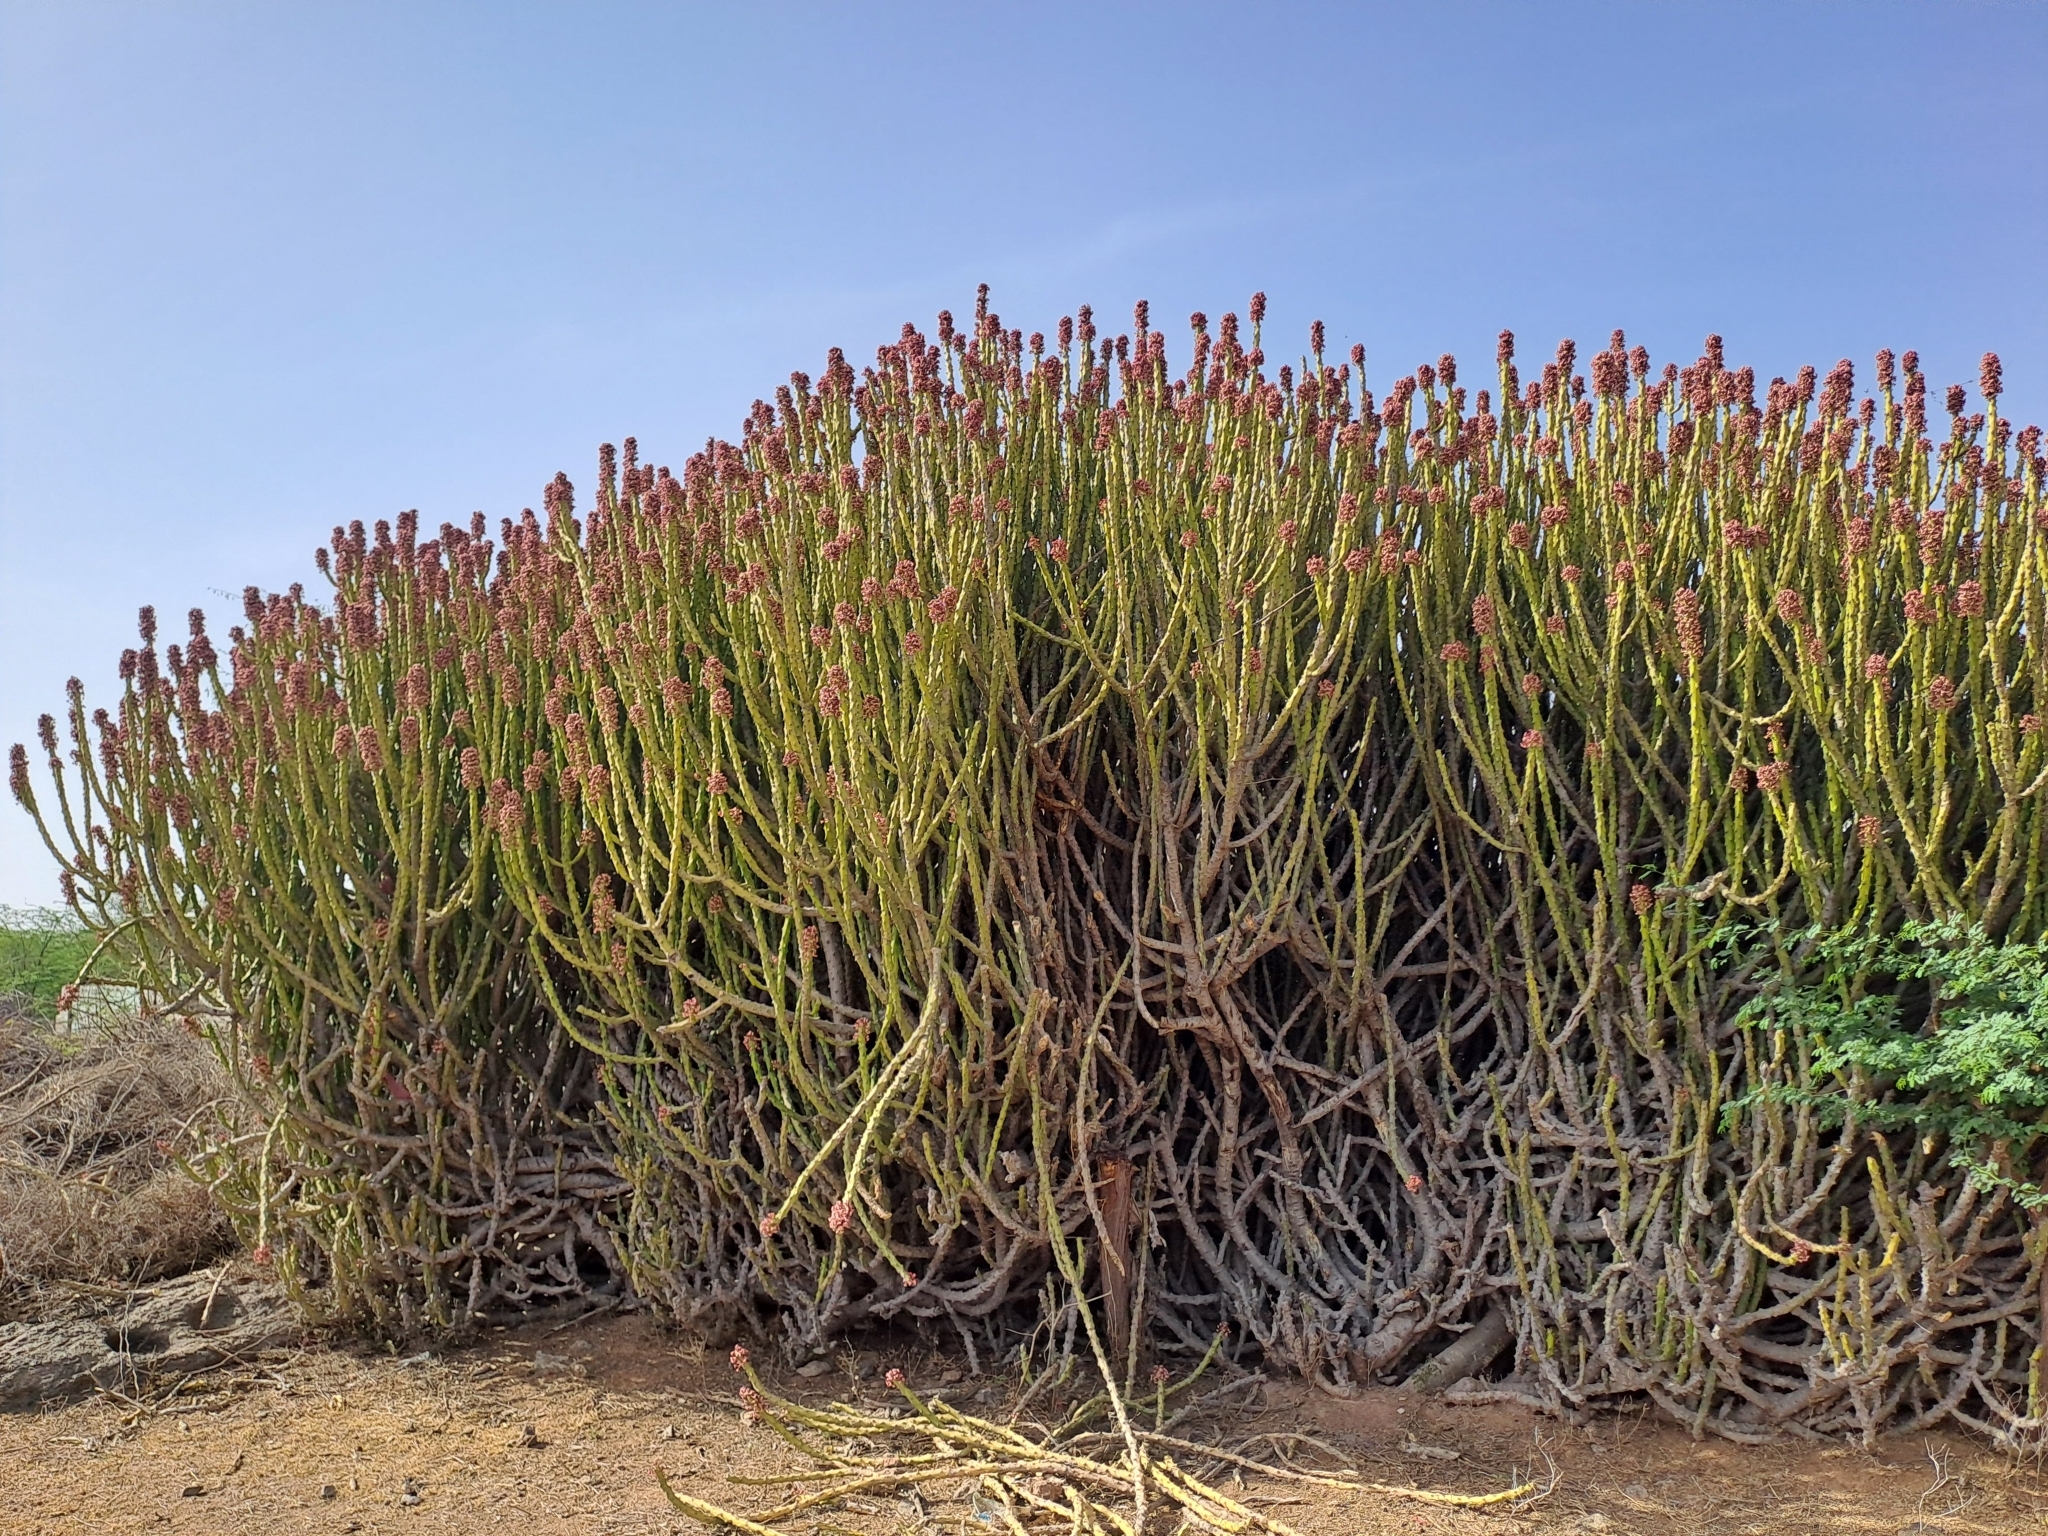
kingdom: Plantae
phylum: Tracheophyta
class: Magnoliopsida
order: Malpighiales
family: Euphorbiaceae
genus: Euphorbia
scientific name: Euphorbia caducifolia
